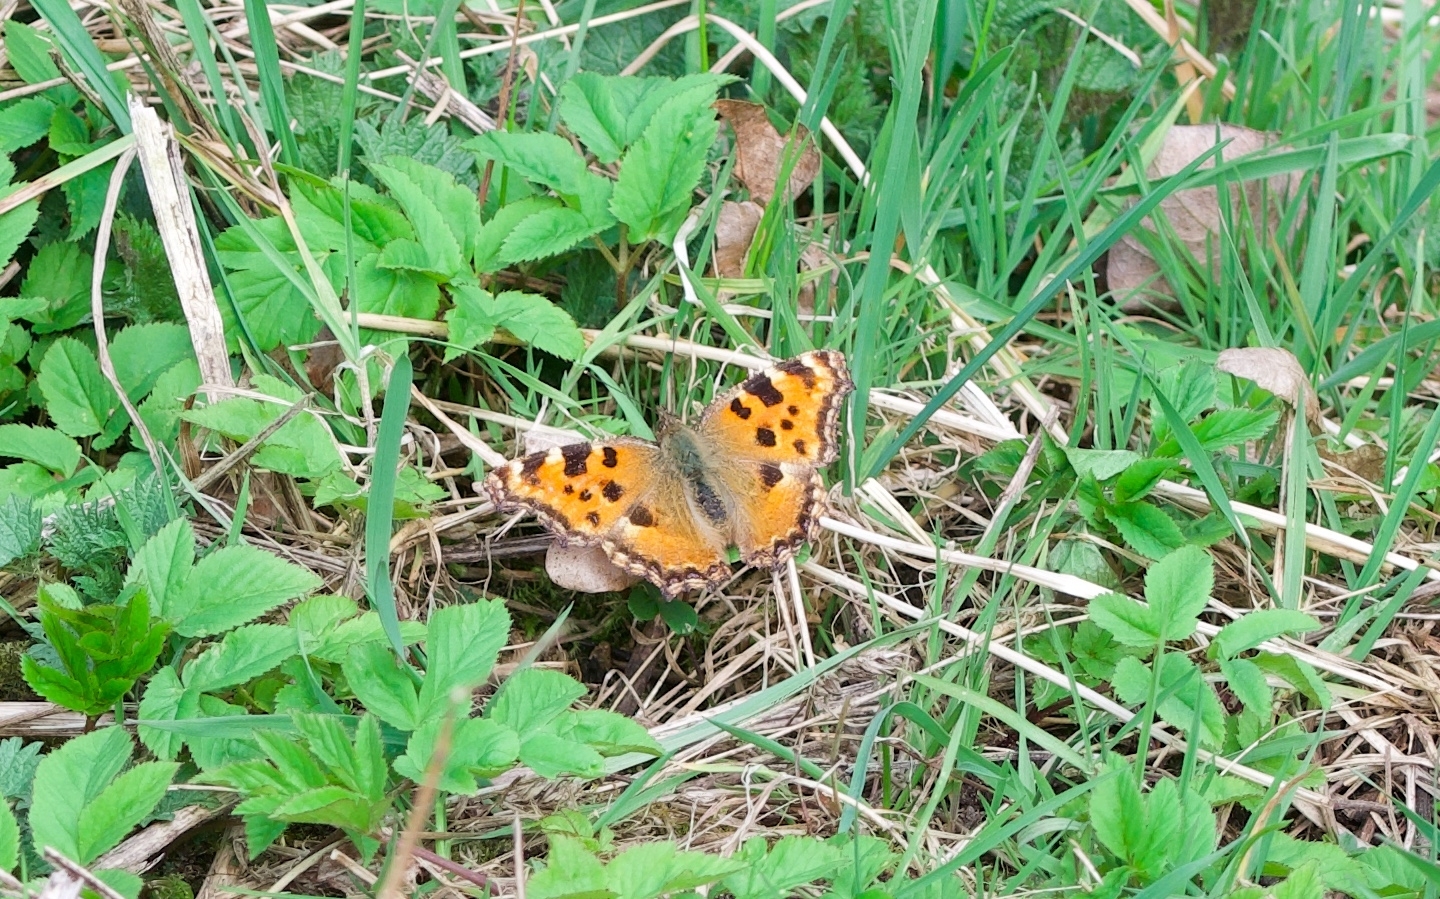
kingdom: Animalia
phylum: Arthropoda
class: Insecta
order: Lepidoptera
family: Nymphalidae
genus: Nymphalis
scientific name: Nymphalis polychloros
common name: Large tortoiseshell
